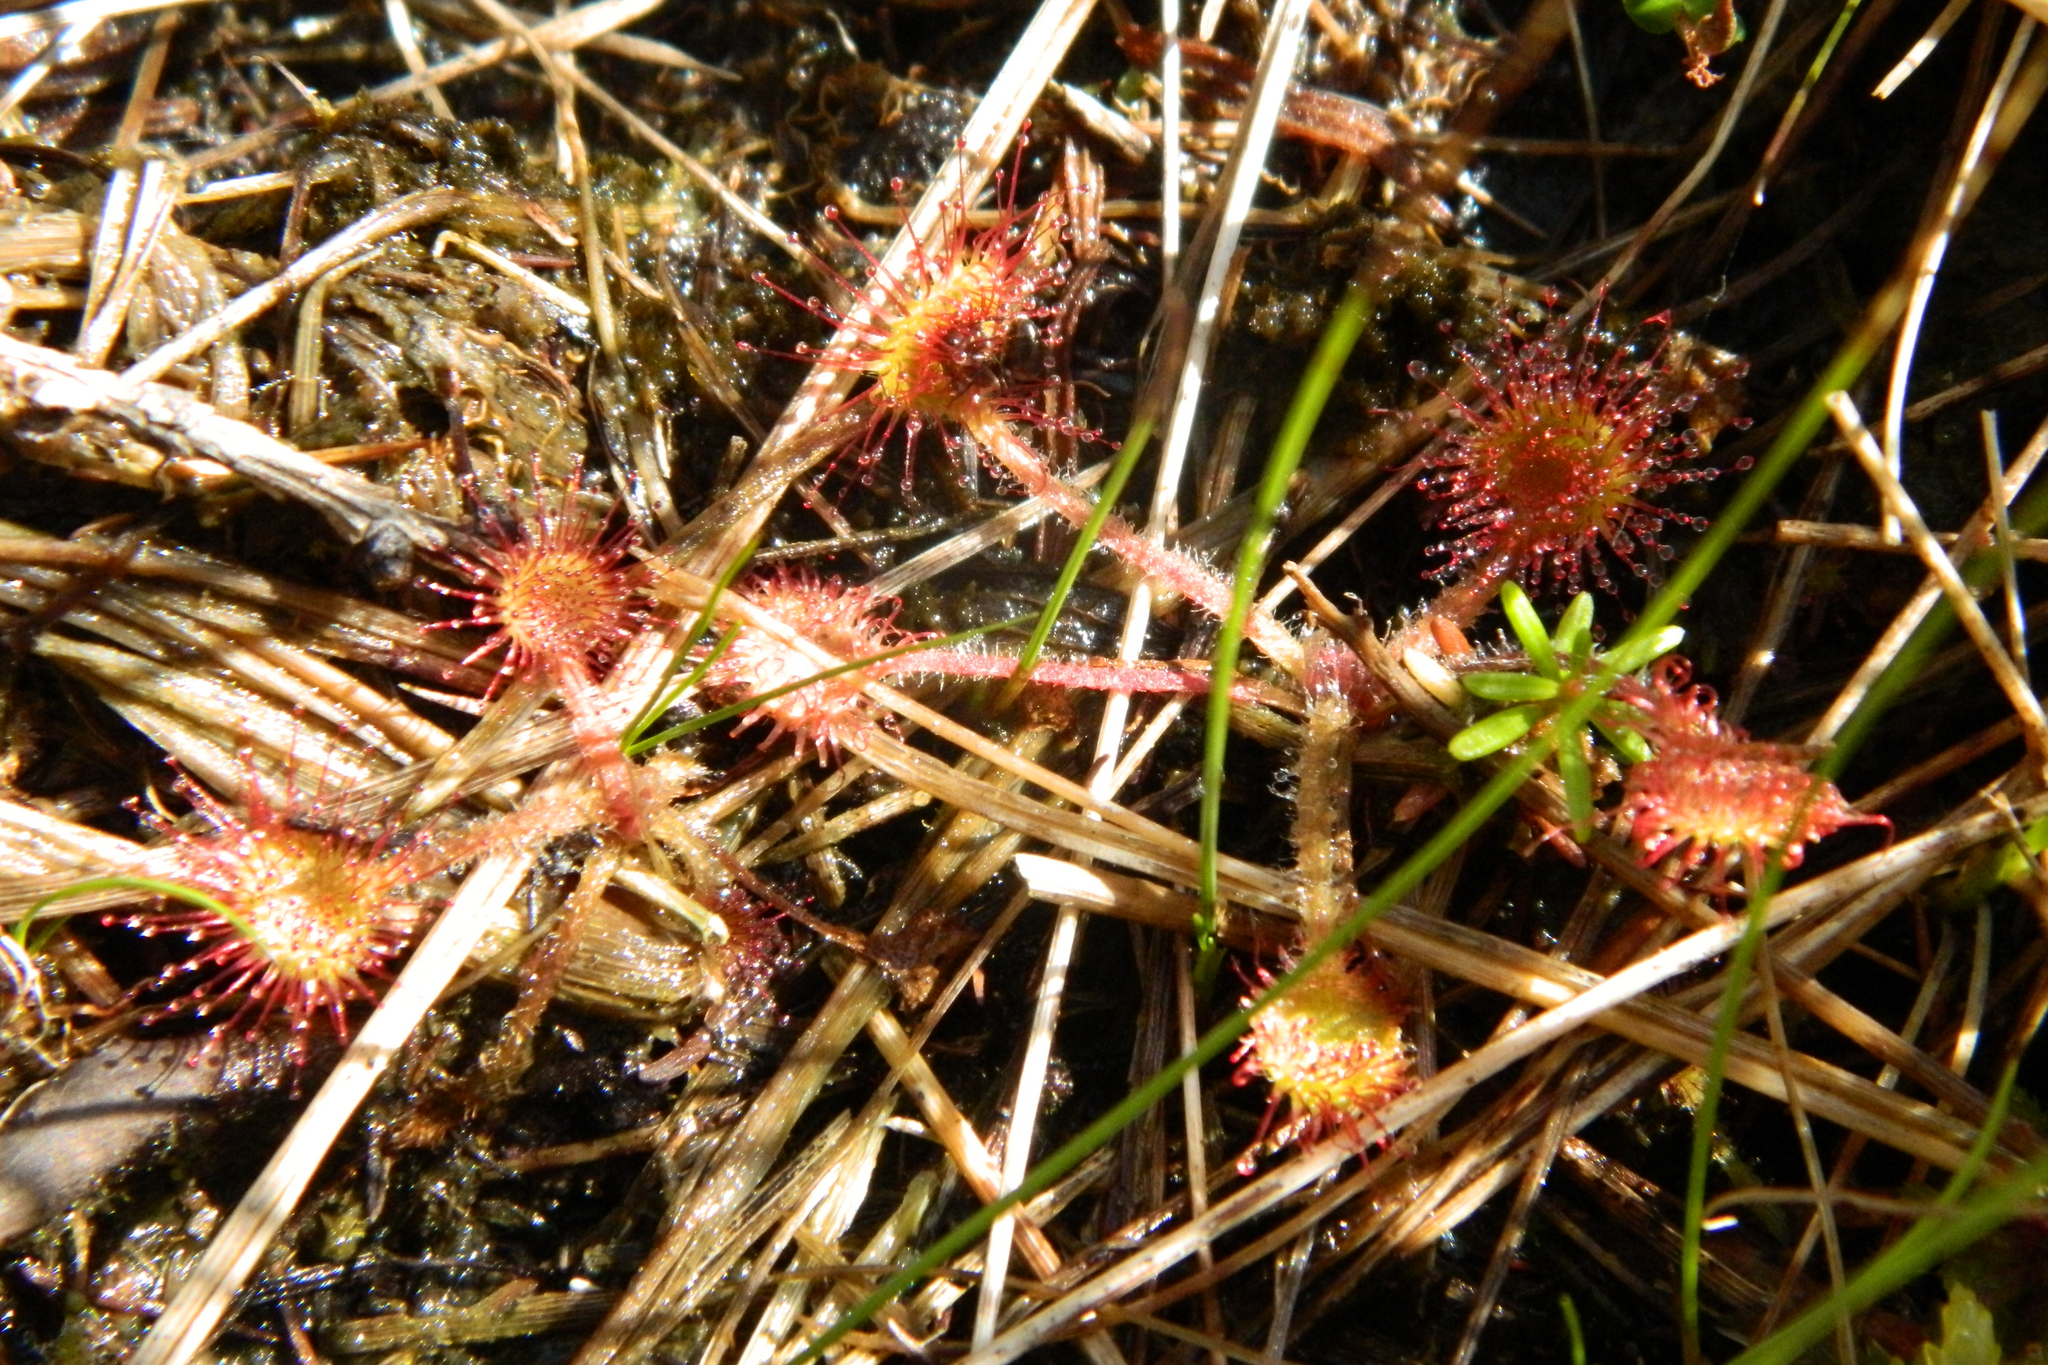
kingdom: Plantae
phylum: Tracheophyta
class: Magnoliopsida
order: Caryophyllales
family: Droseraceae
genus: Drosera
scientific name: Drosera rotundifolia
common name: Round-leaved sundew
